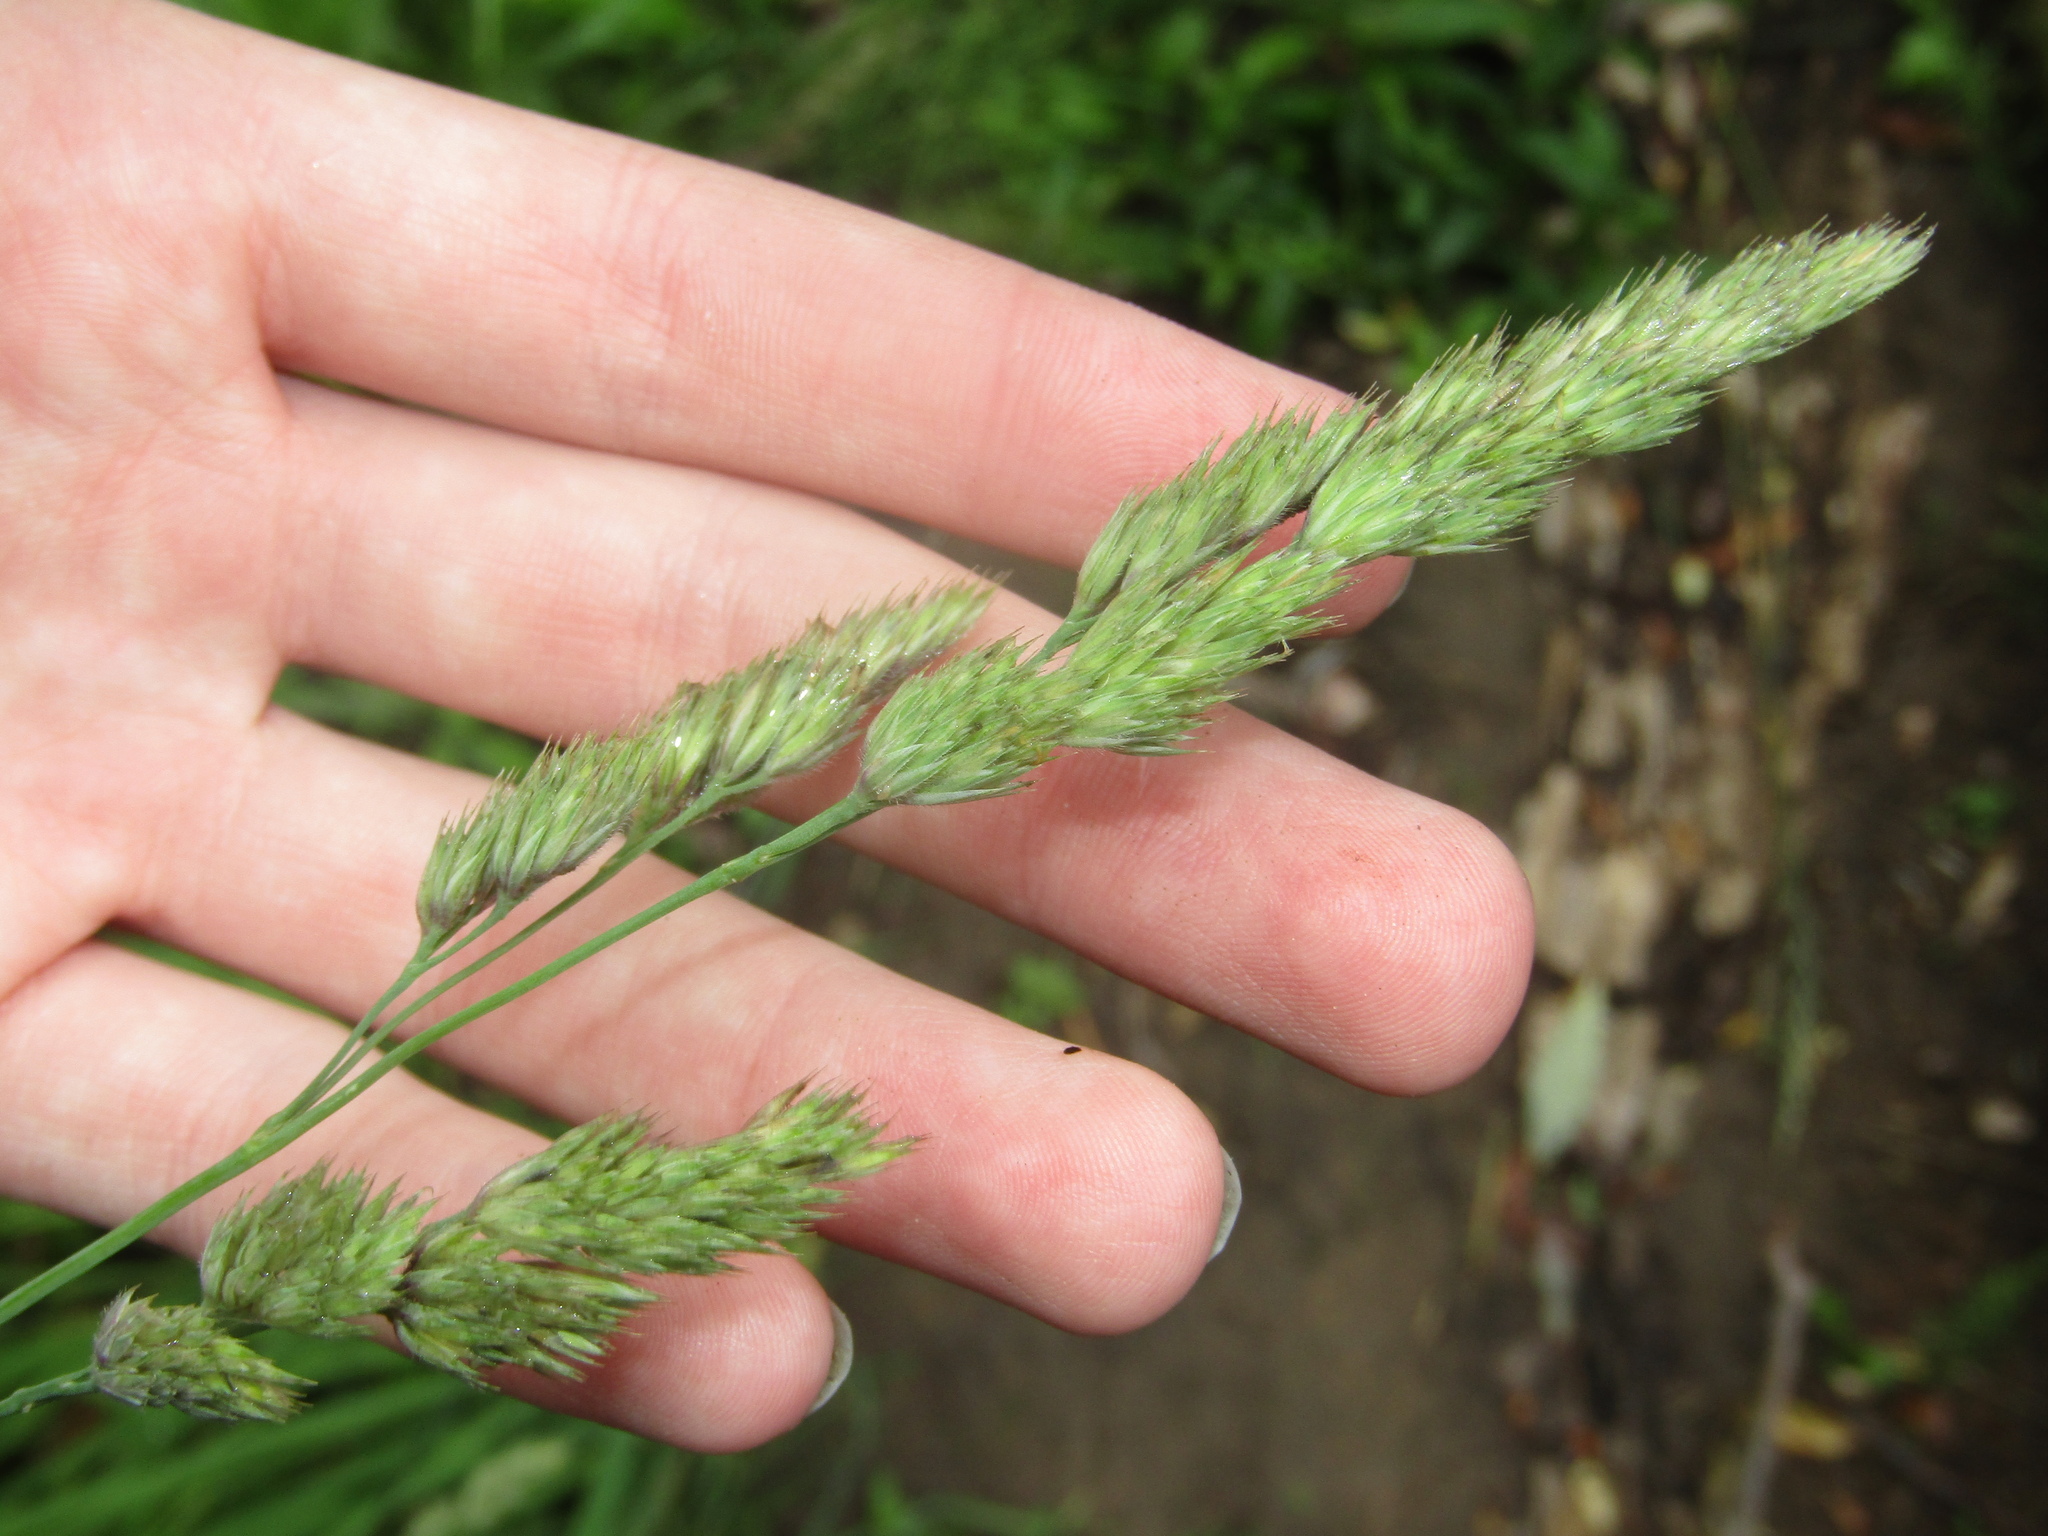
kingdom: Plantae
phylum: Tracheophyta
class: Liliopsida
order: Poales
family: Poaceae
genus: Dactylis
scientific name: Dactylis glomerata
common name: Orchardgrass
